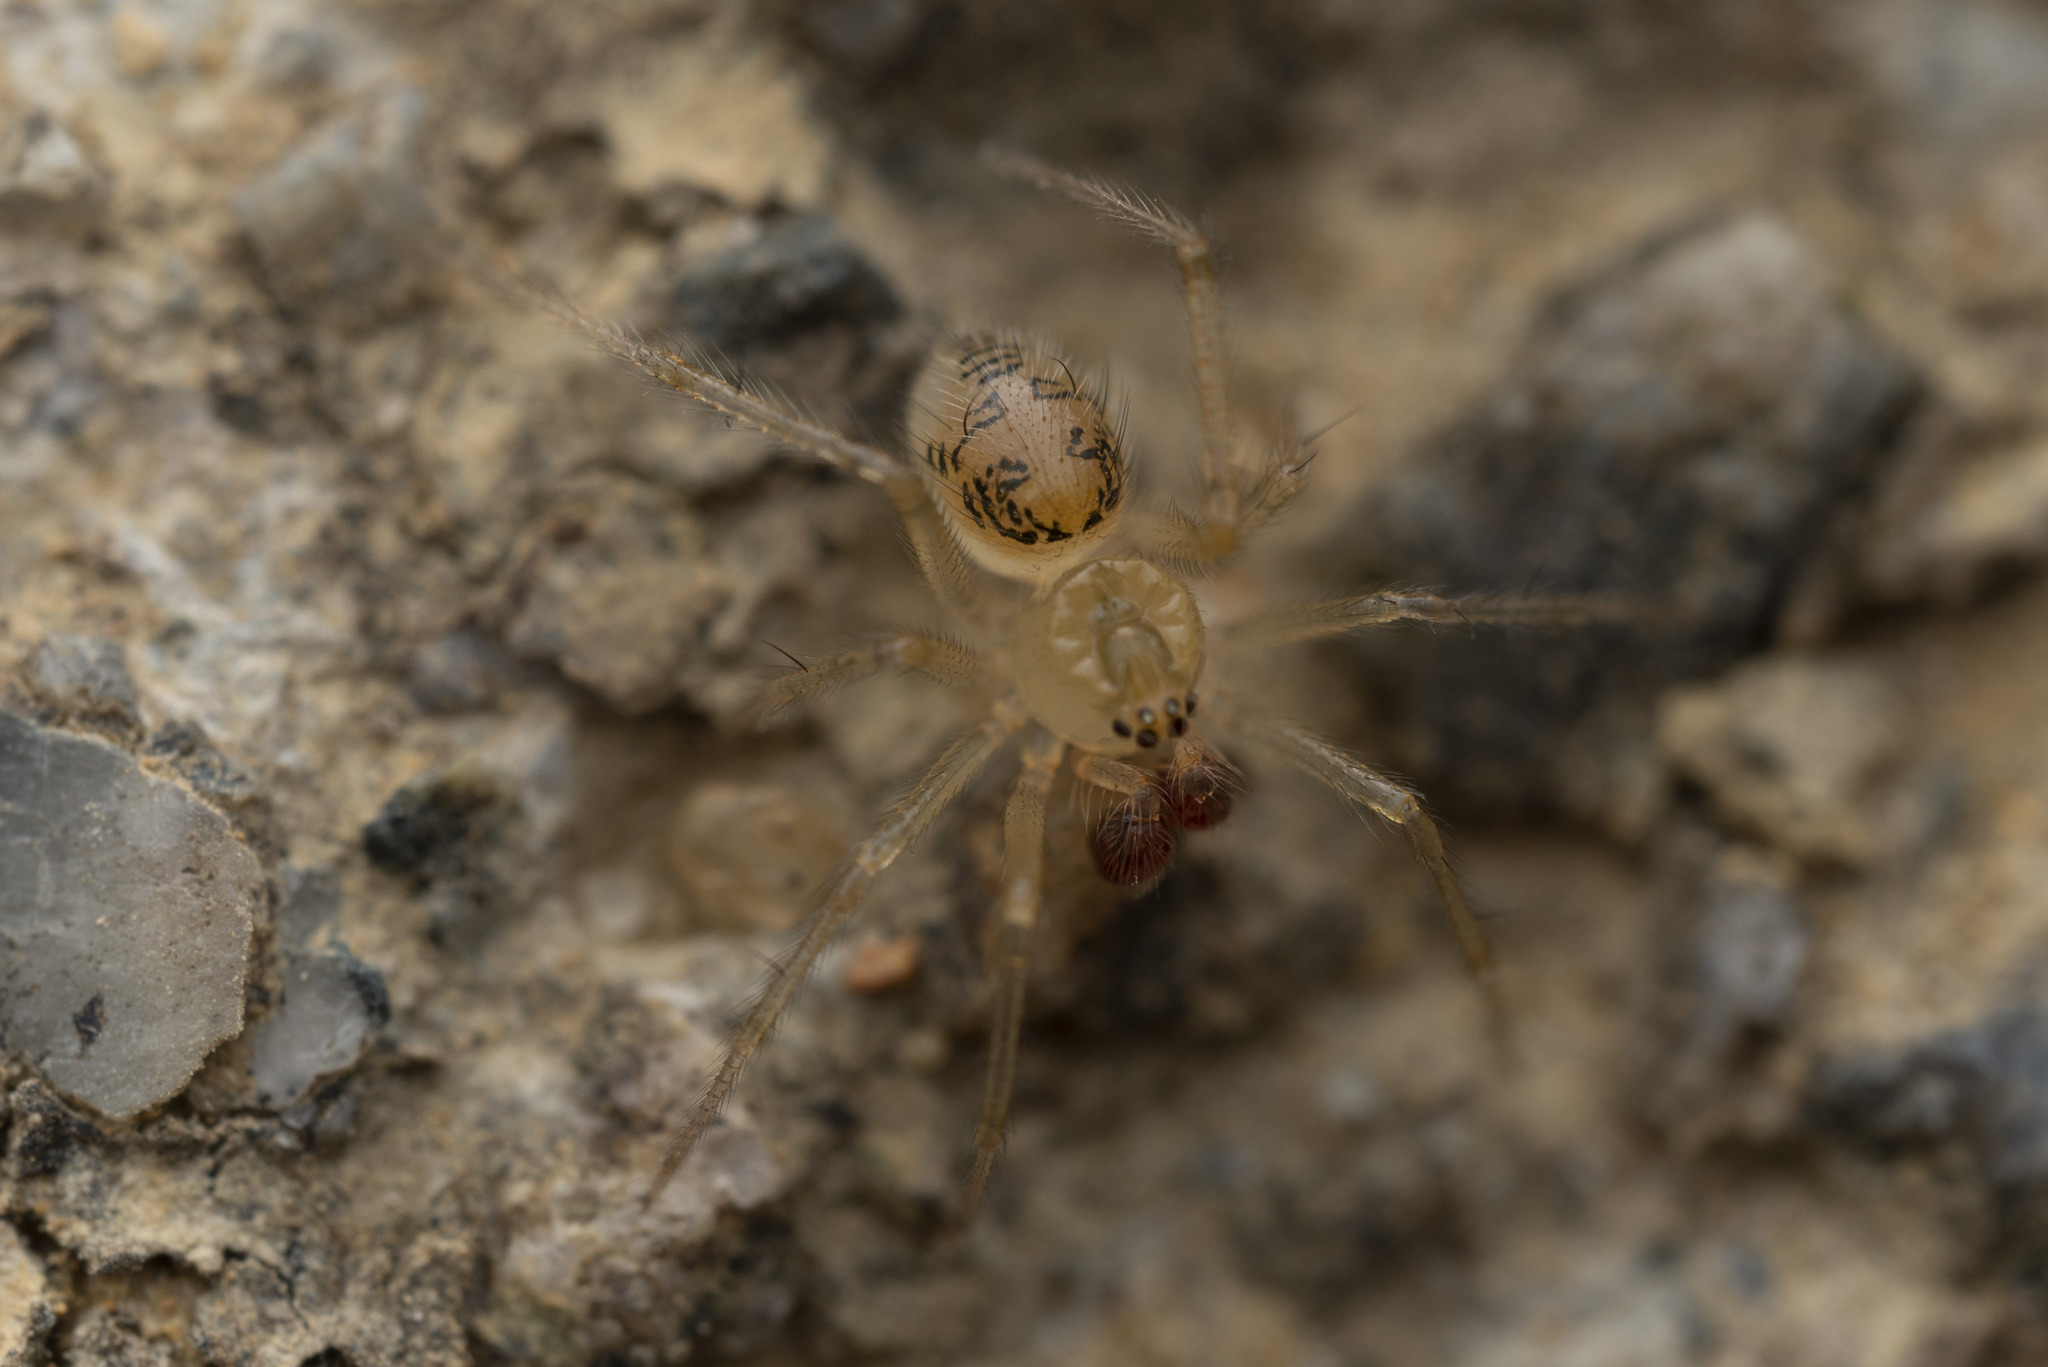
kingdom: Animalia
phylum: Arthropoda
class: Arachnida
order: Araneae
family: Theridiidae
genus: Phycosoma
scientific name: Phycosoma digitula
